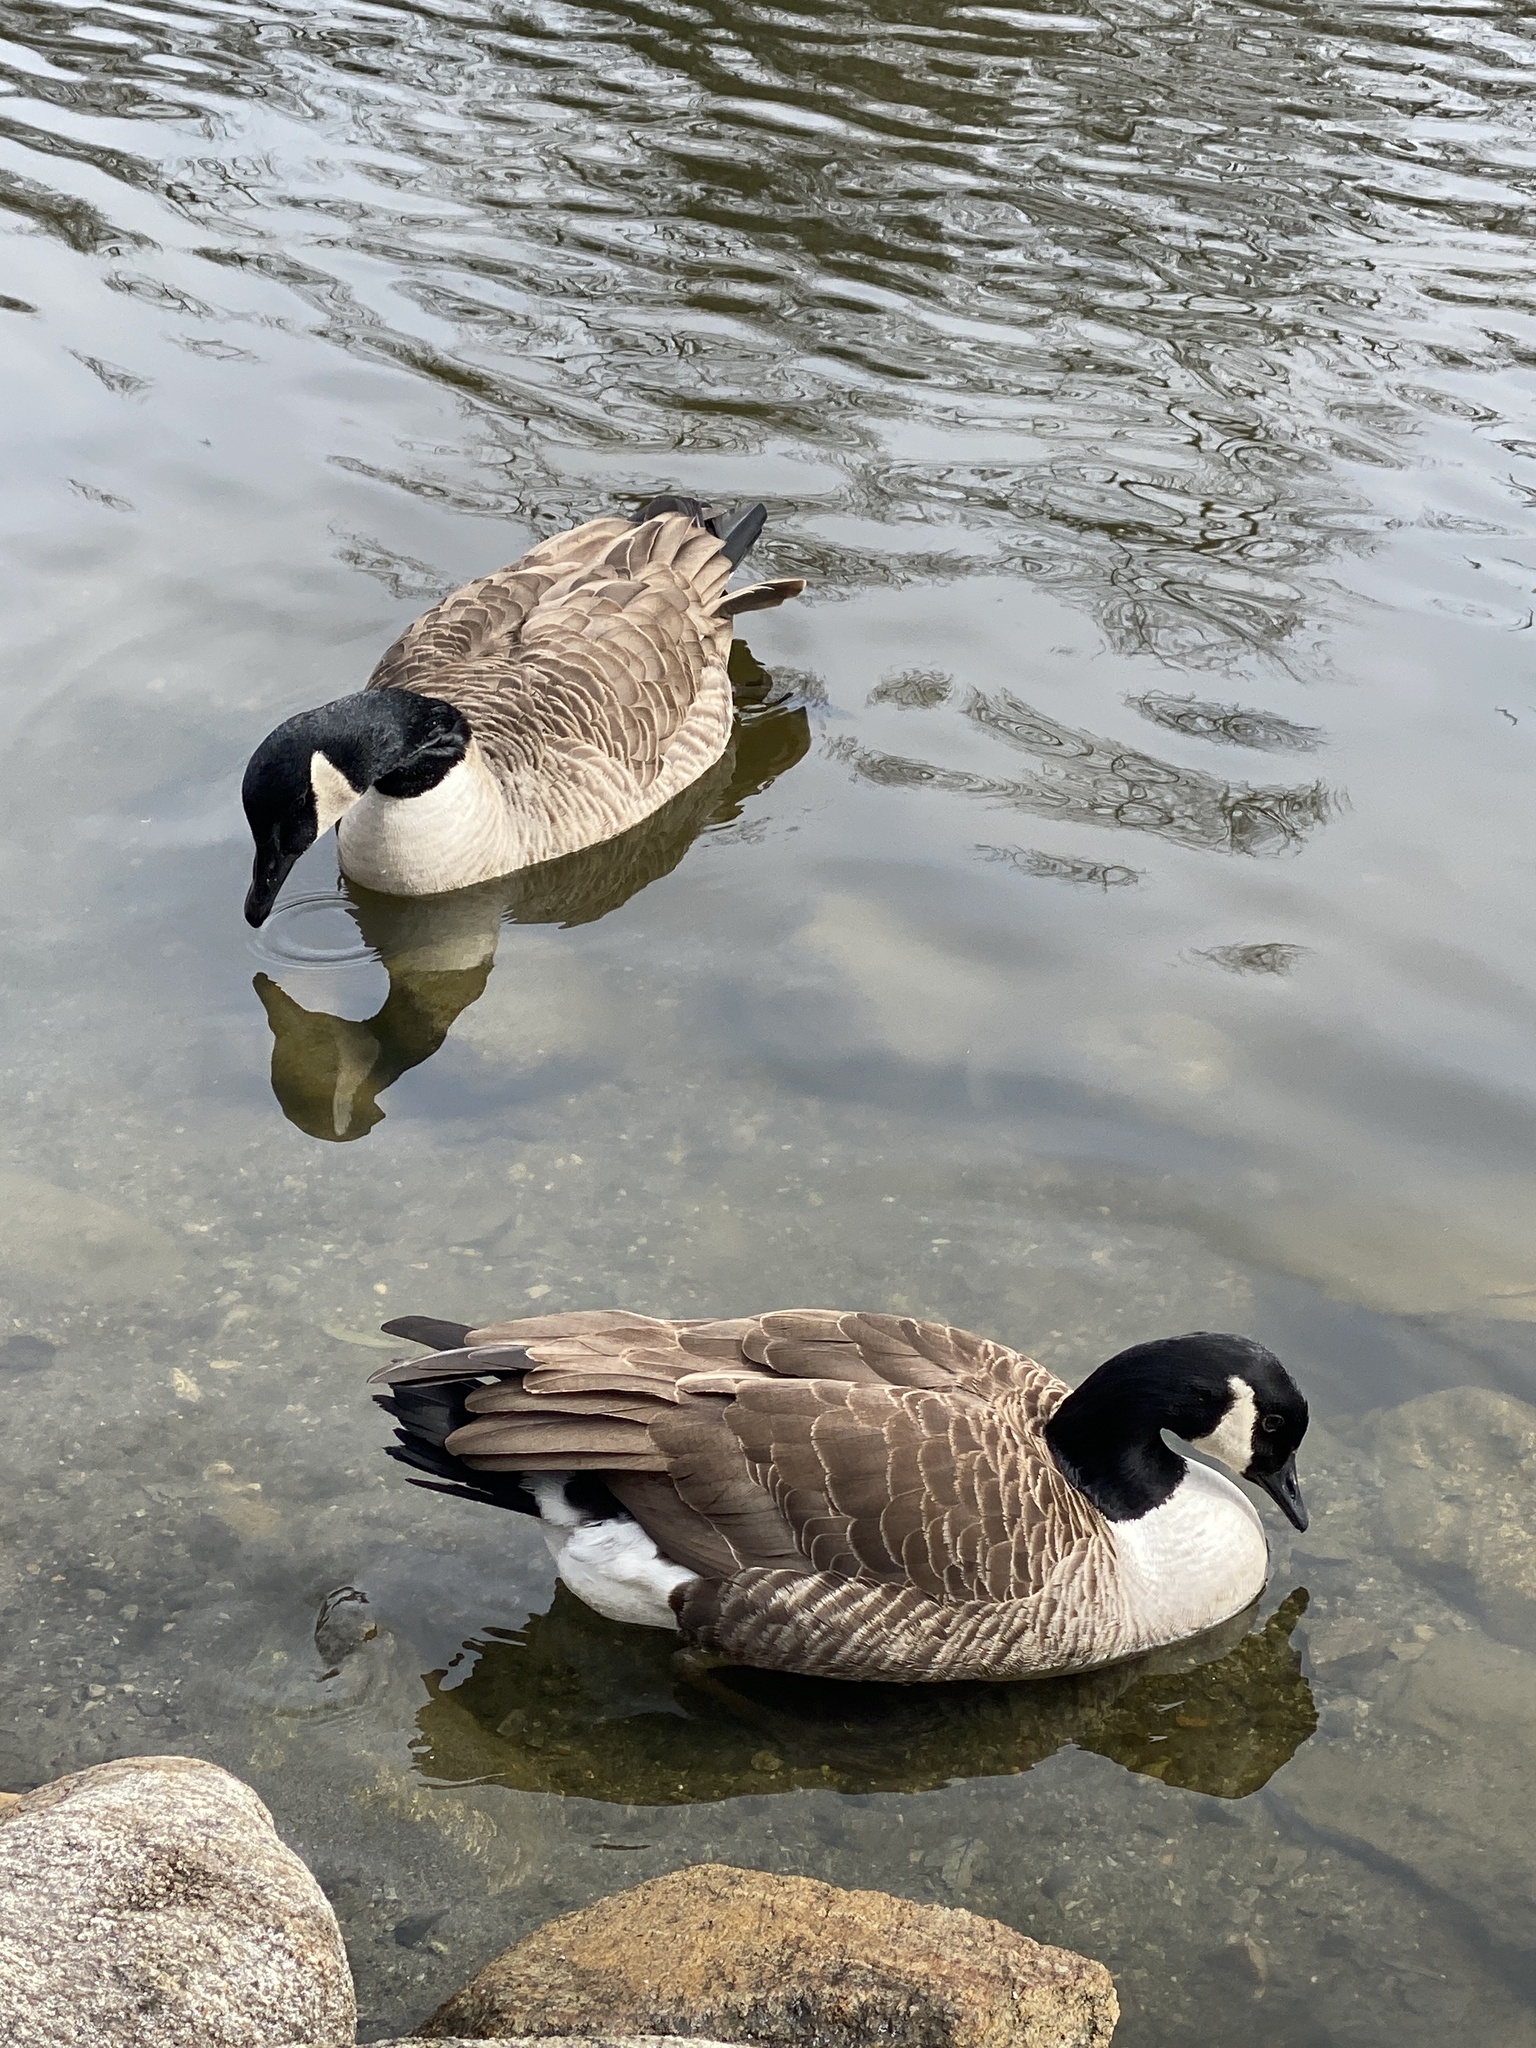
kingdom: Animalia
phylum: Chordata
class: Aves
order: Anseriformes
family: Anatidae
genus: Branta
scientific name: Branta canadensis
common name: Canada goose
